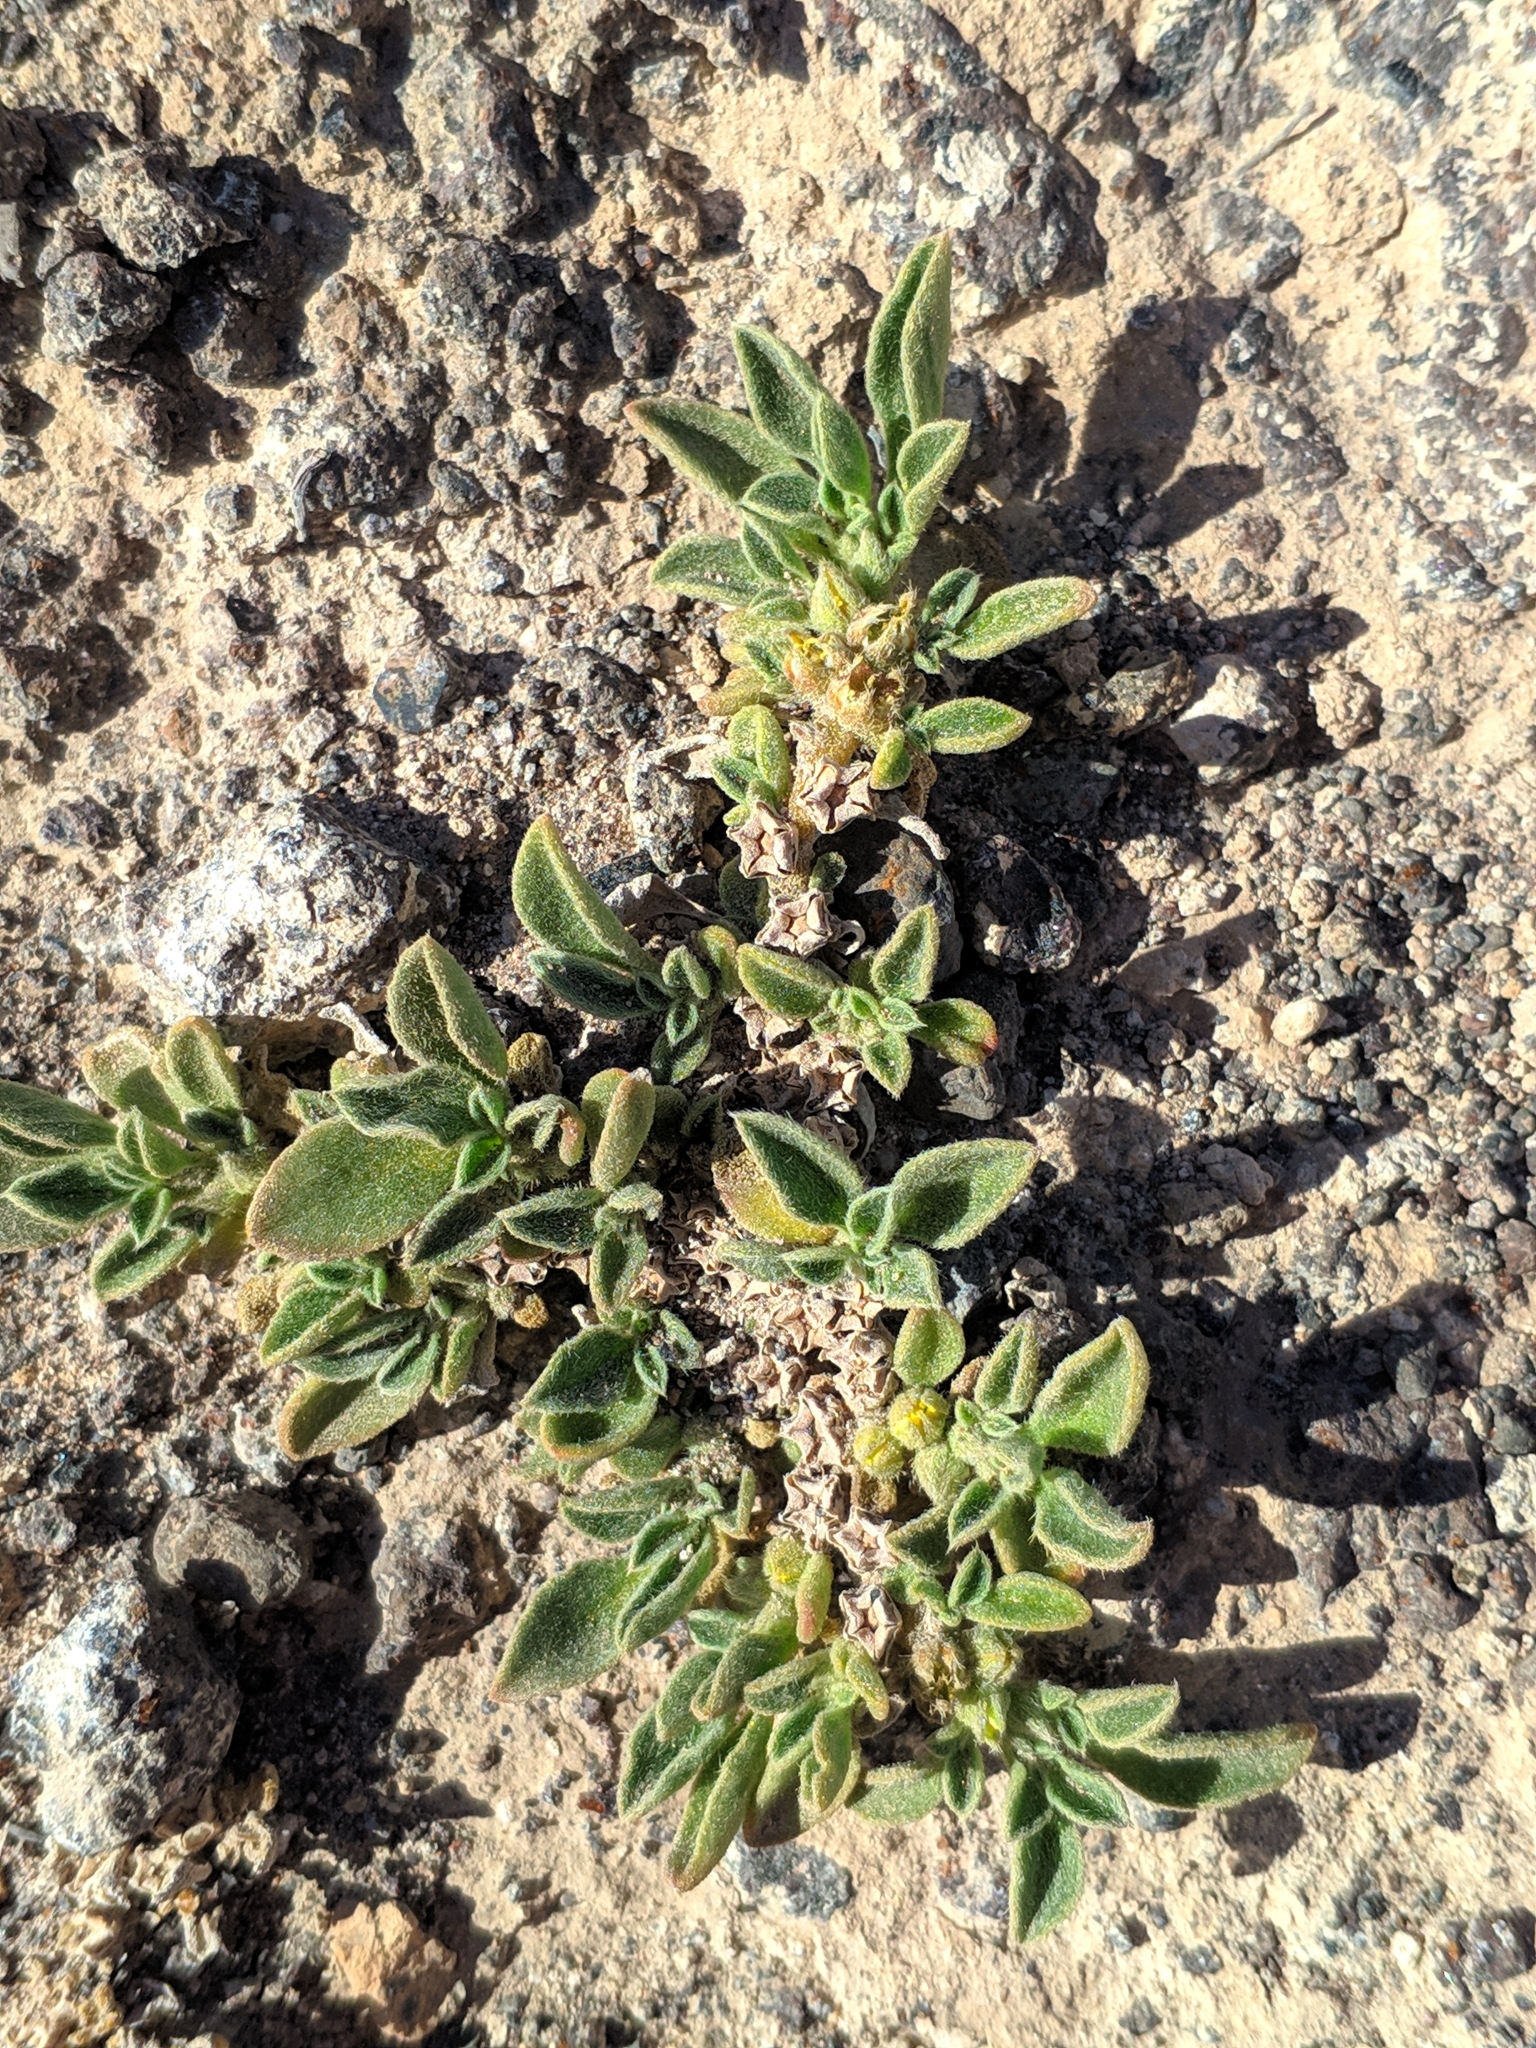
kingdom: Plantae
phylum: Tracheophyta
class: Magnoliopsida
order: Caryophyllales
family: Aizoaceae
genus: Aizoon
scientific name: Aizoon canariense
